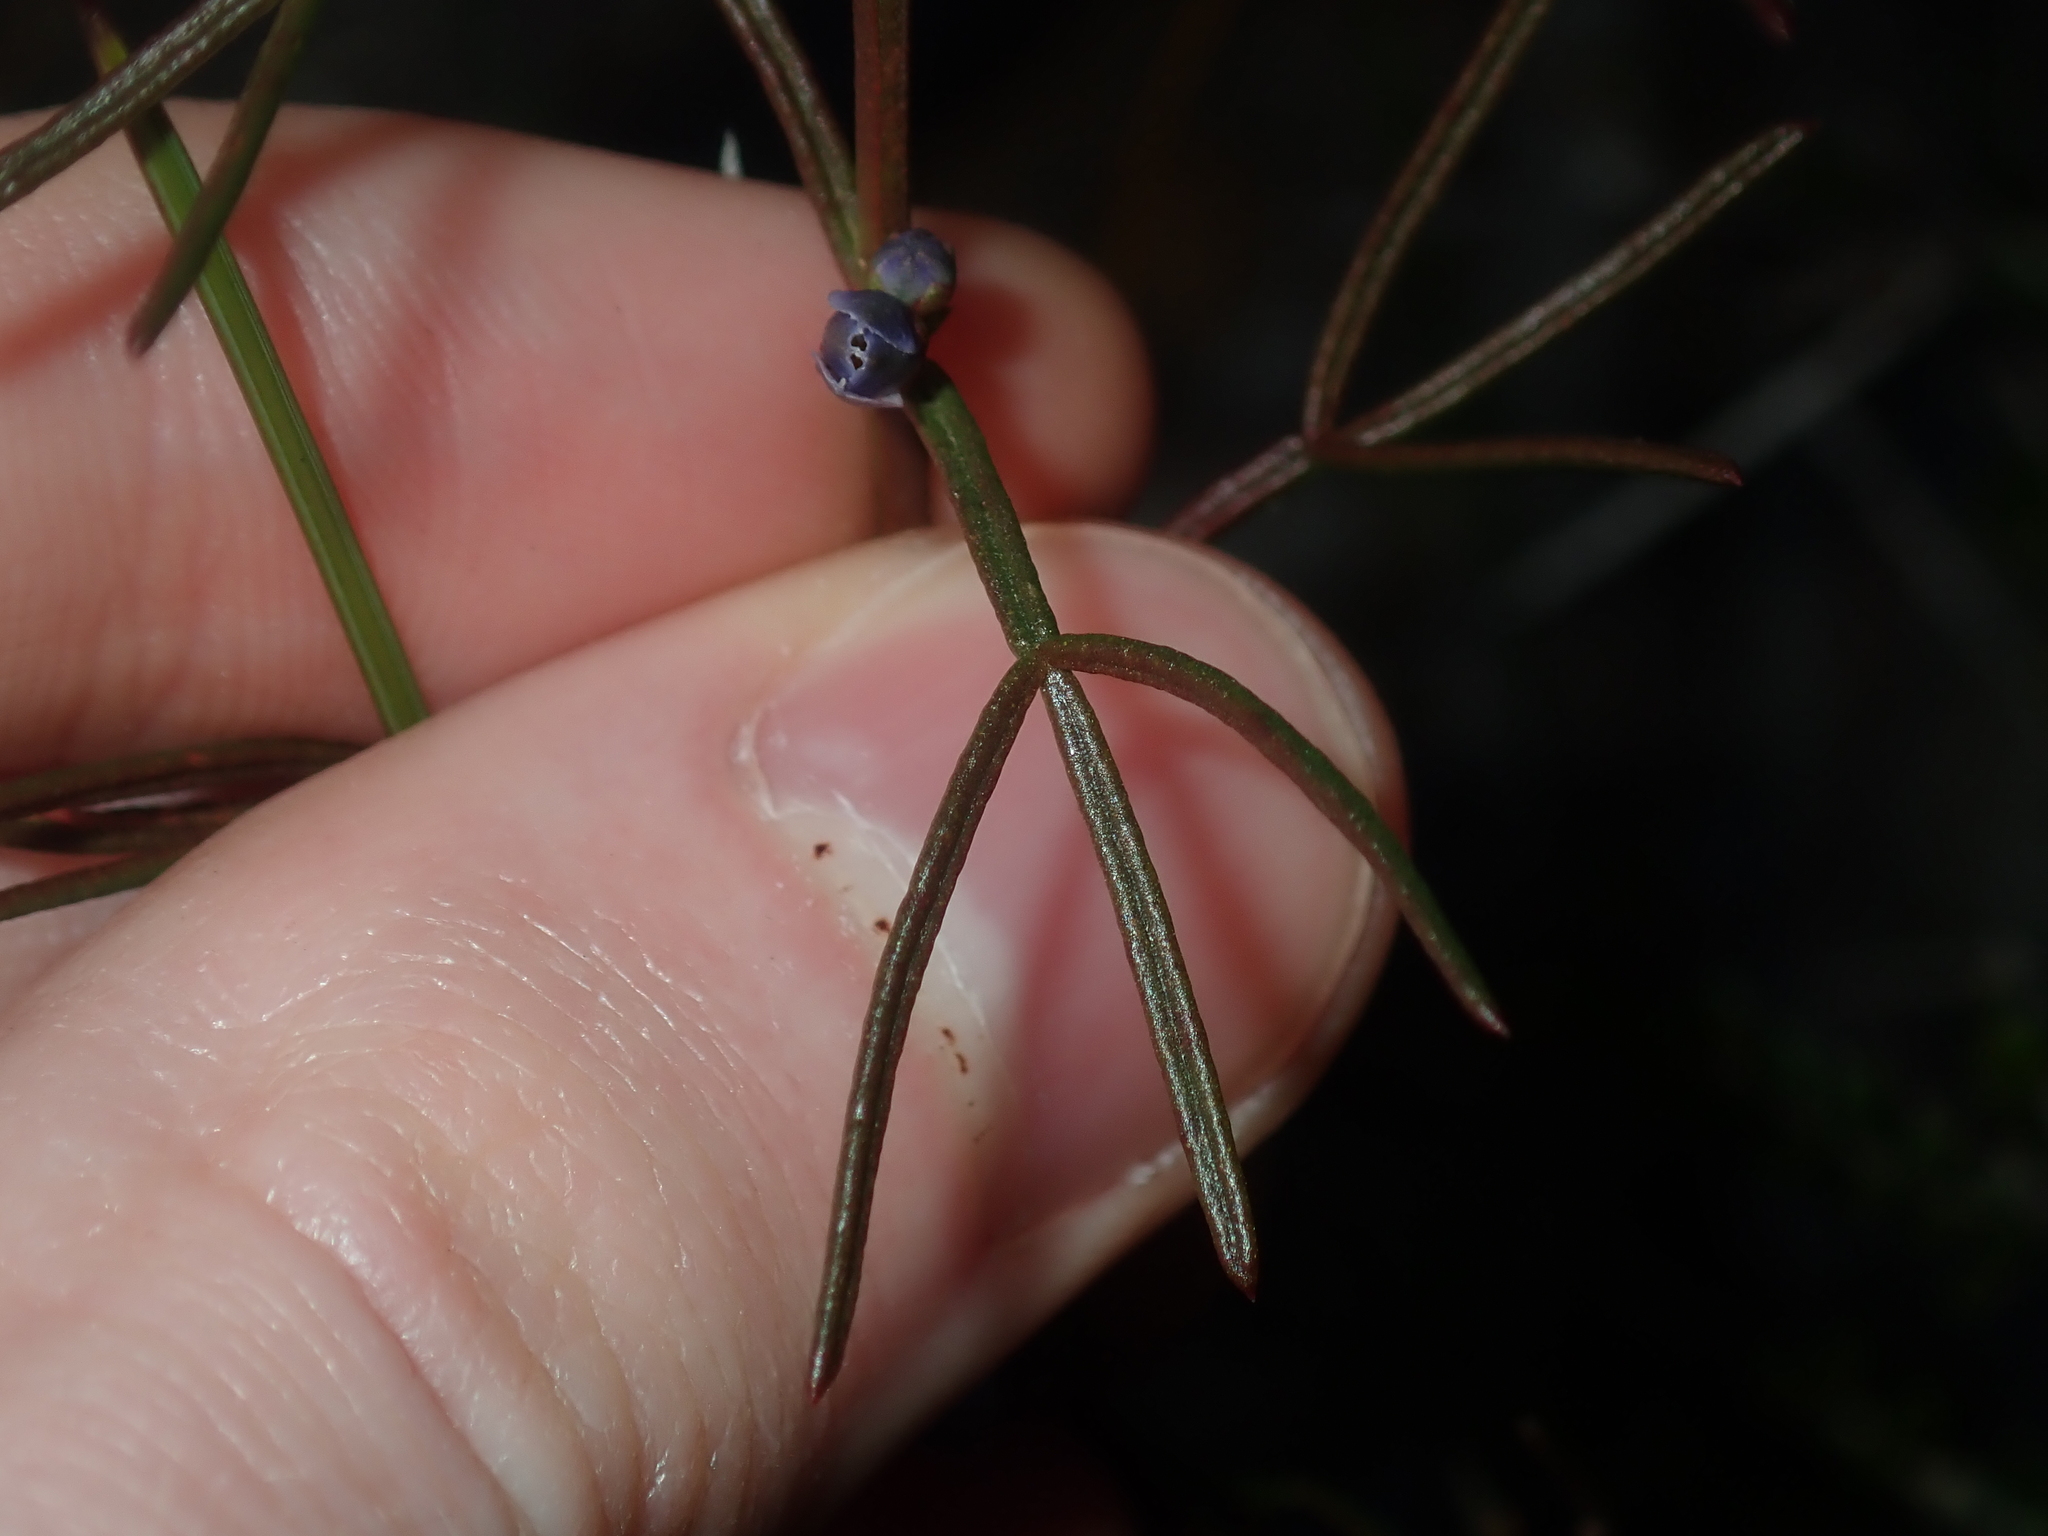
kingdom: Plantae
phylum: Tracheophyta
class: Magnoliopsida
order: Sapindales
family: Rutaceae
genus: Cyanothamnus
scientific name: Cyanothamnus ramosus
